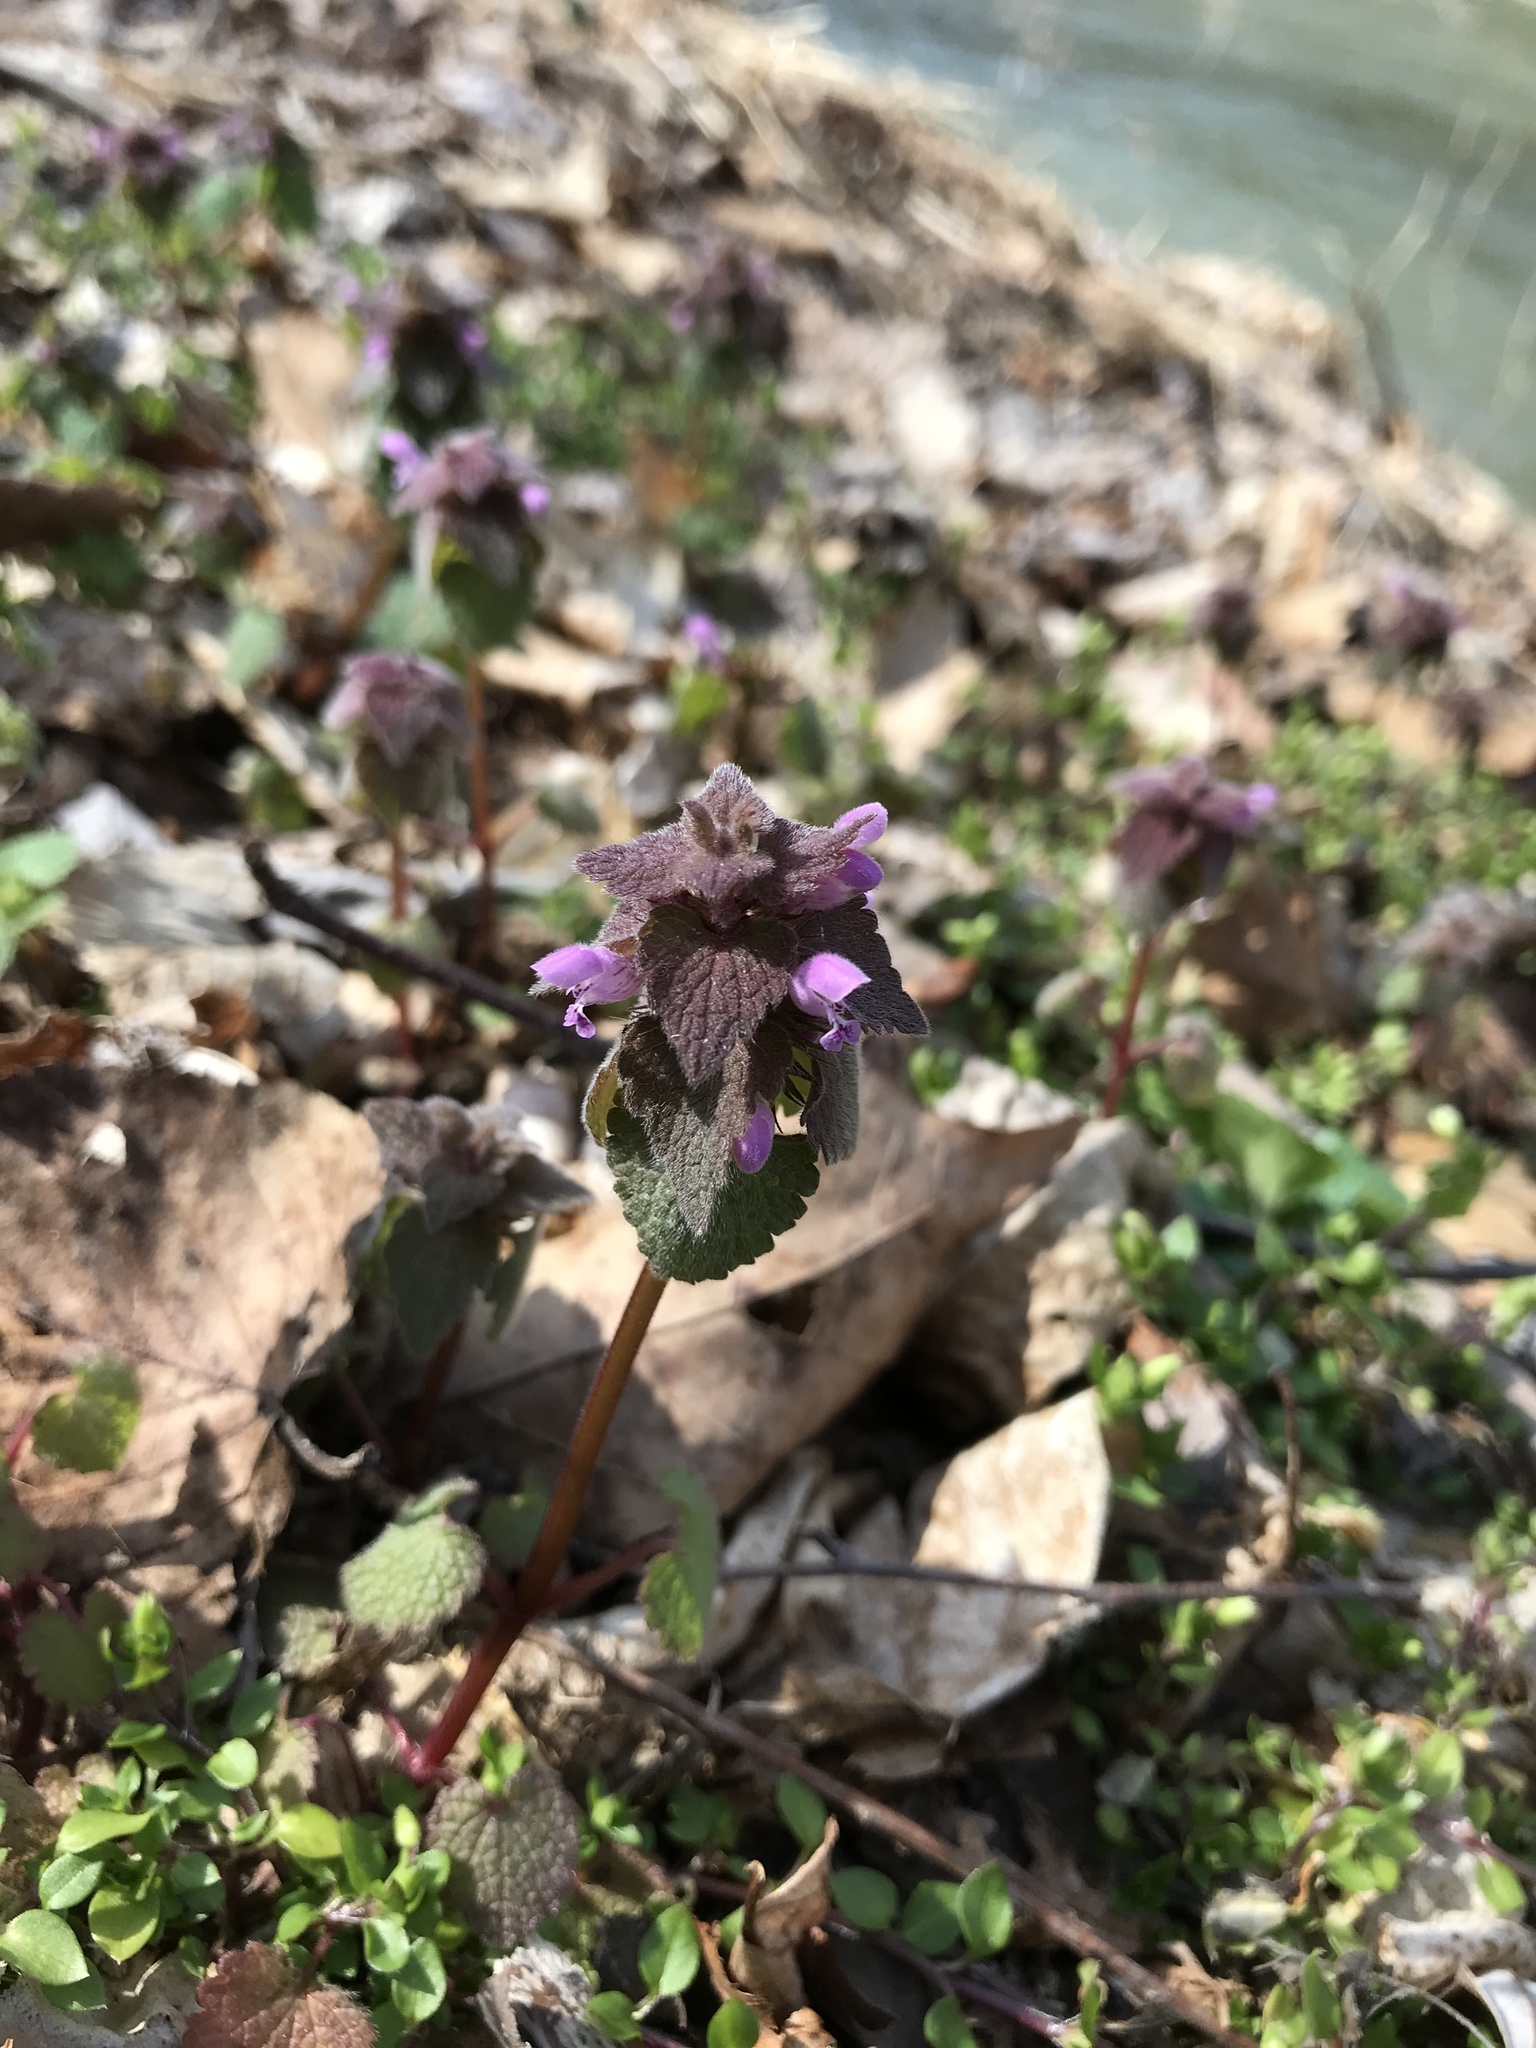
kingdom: Plantae
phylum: Tracheophyta
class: Magnoliopsida
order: Lamiales
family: Lamiaceae
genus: Lamium
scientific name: Lamium purpureum
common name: Red dead-nettle
